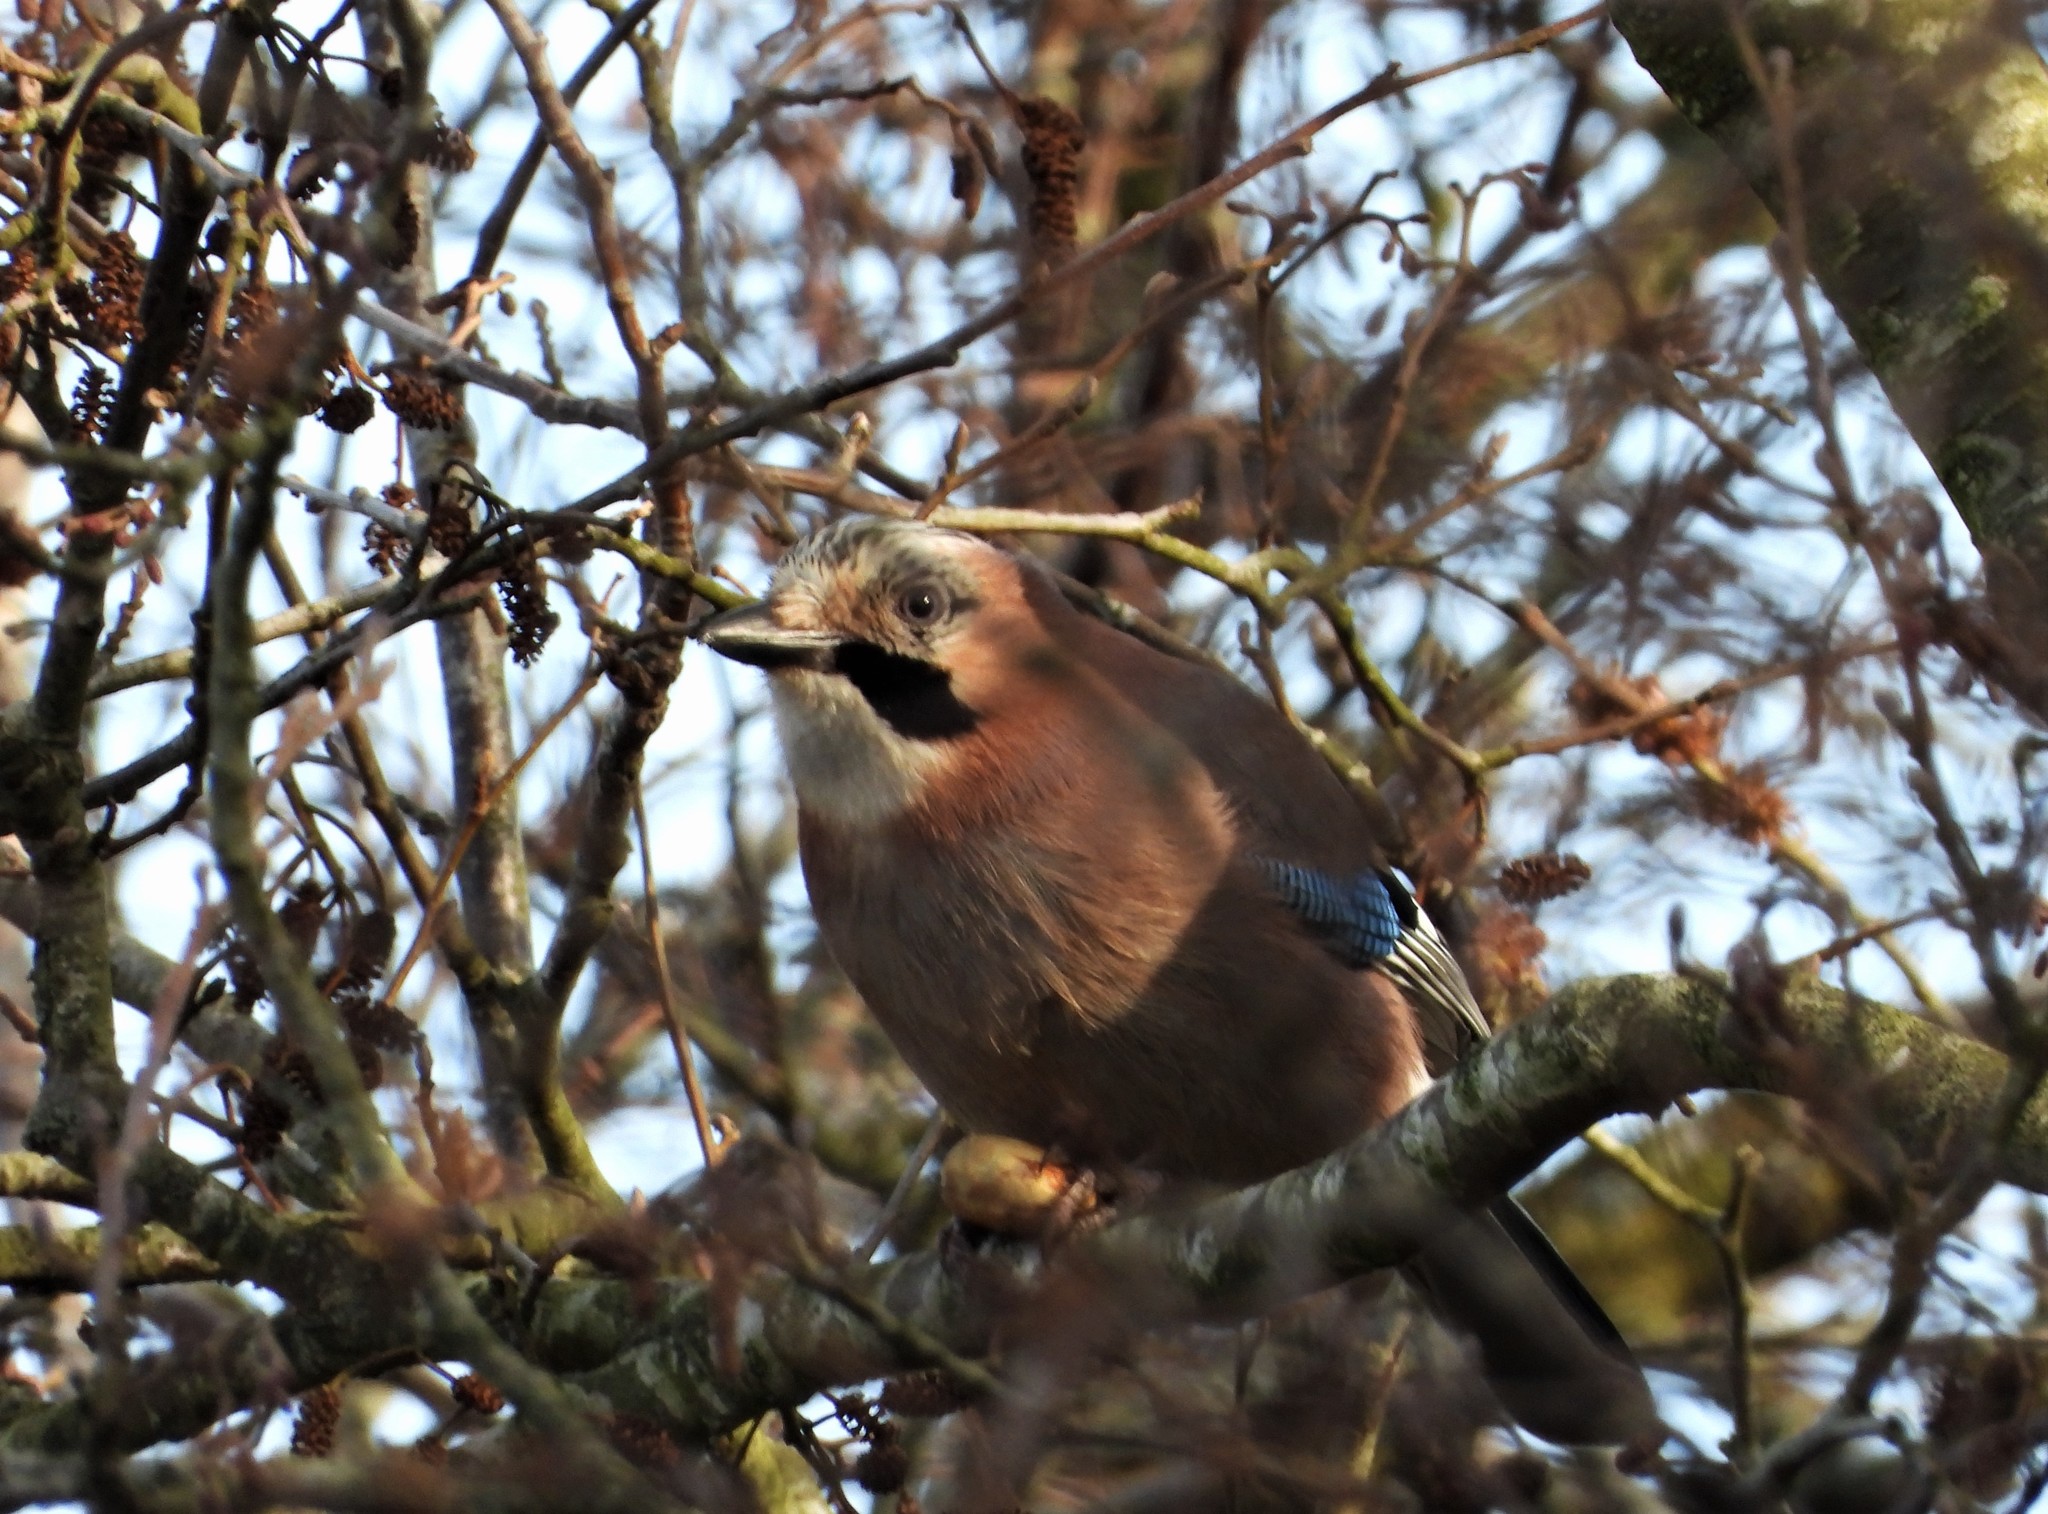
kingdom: Animalia
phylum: Chordata
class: Aves
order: Passeriformes
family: Corvidae
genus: Garrulus
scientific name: Garrulus glandarius
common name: Eurasian jay
